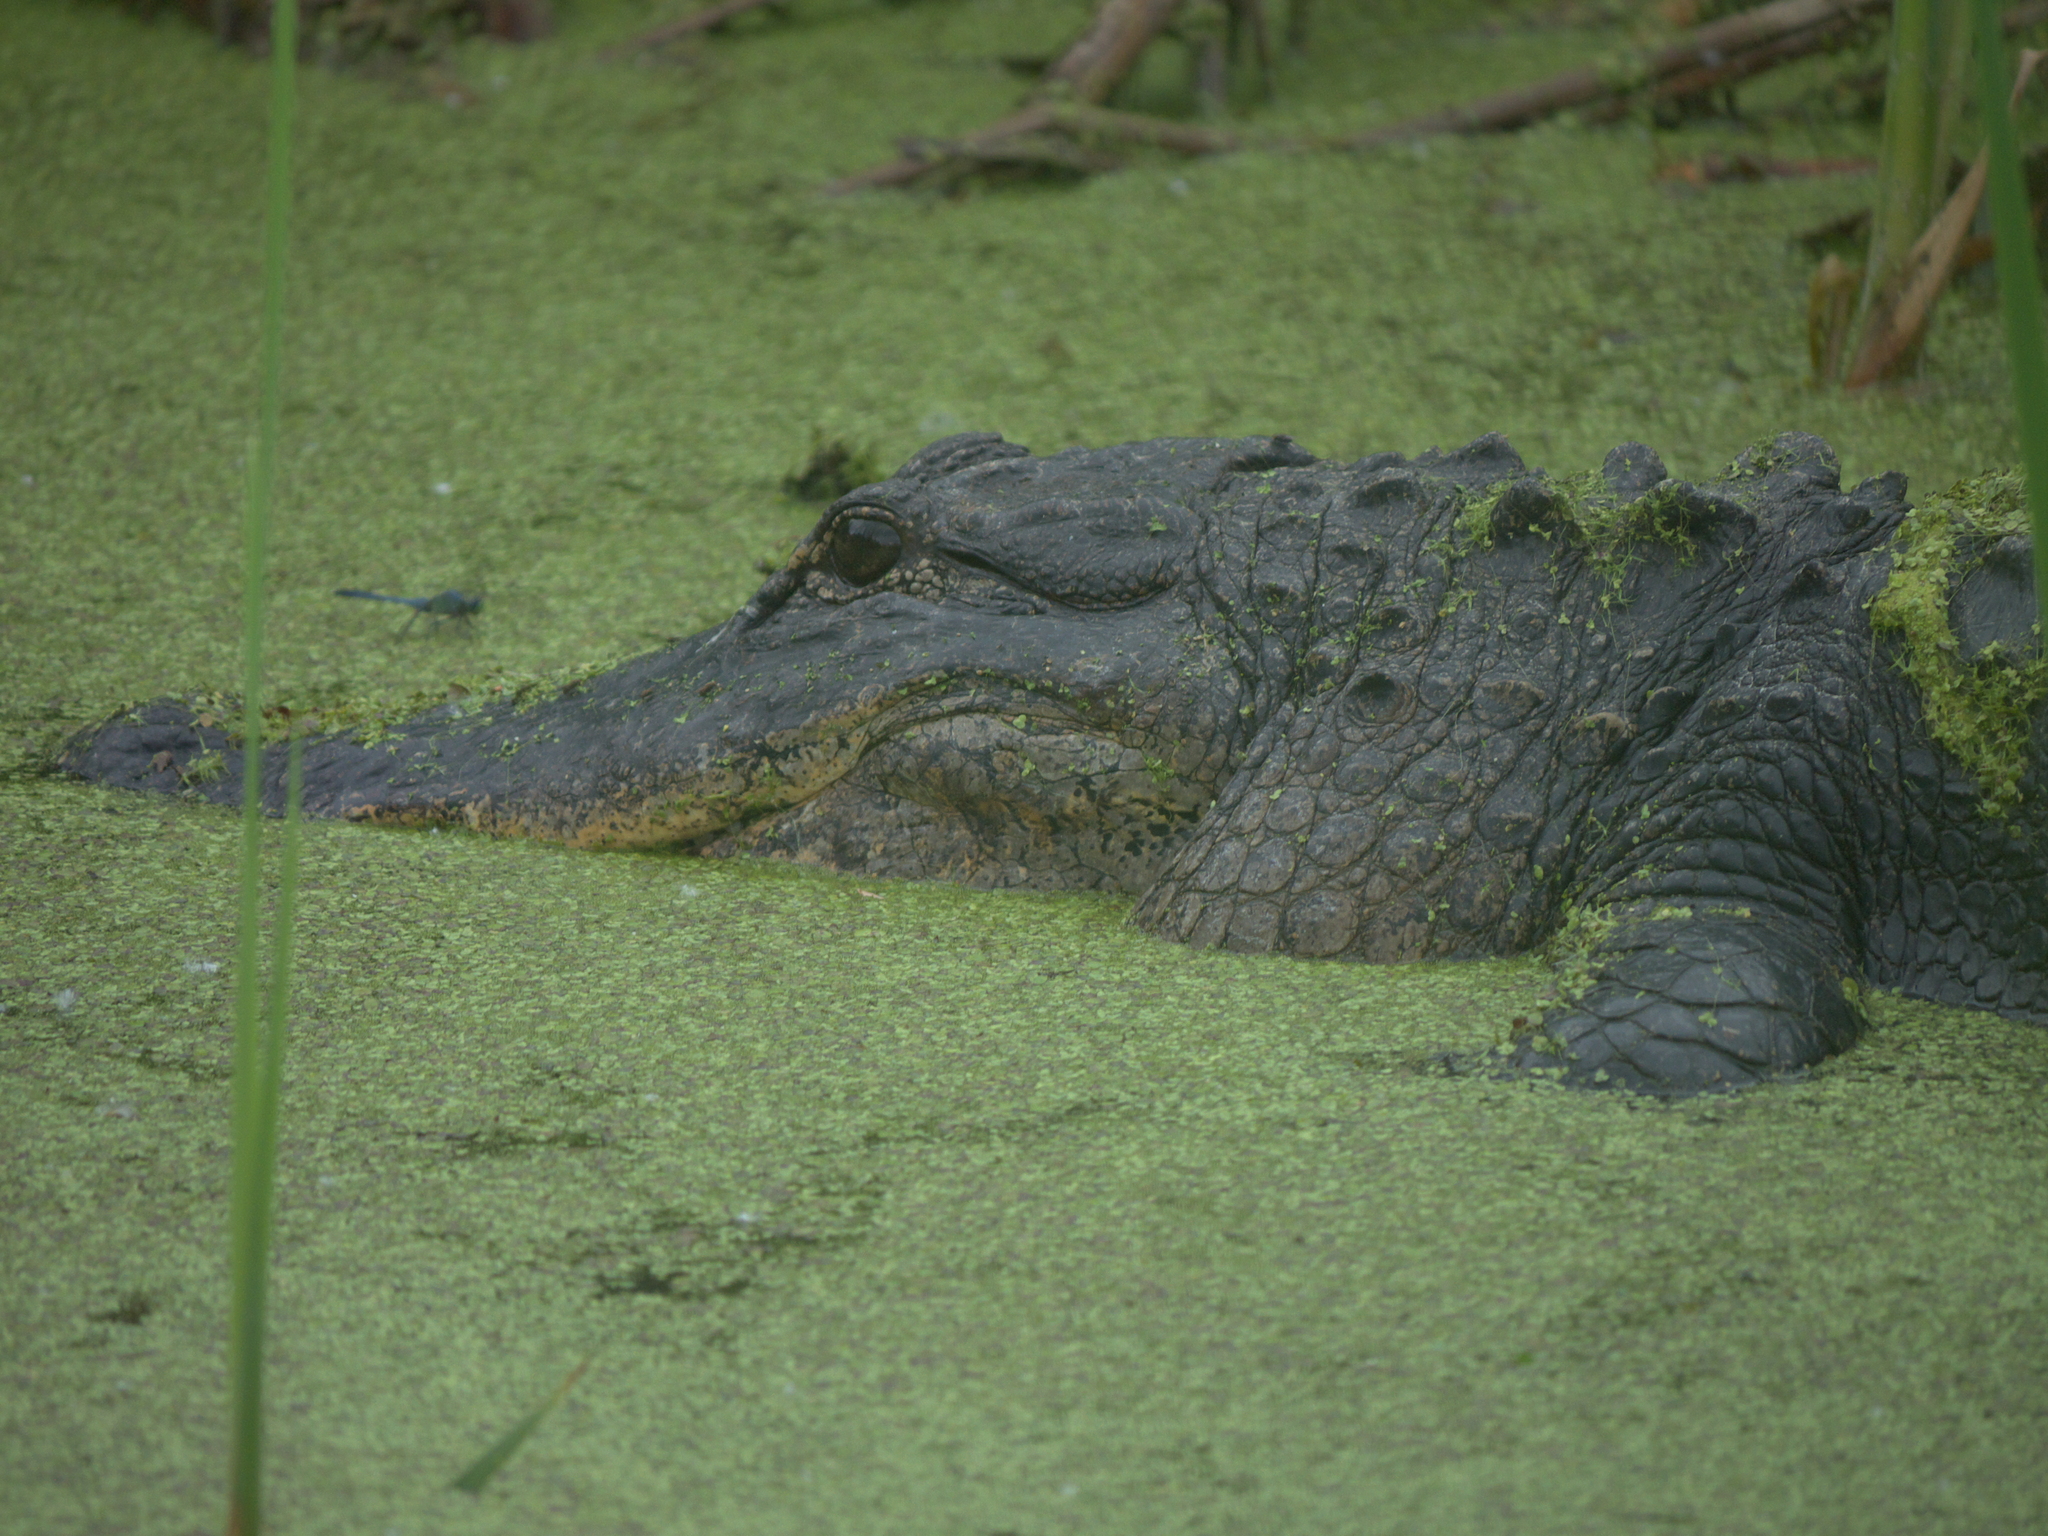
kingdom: Animalia
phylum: Chordata
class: Crocodylia
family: Alligatoridae
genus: Alligator
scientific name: Alligator mississippiensis
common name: American alligator
